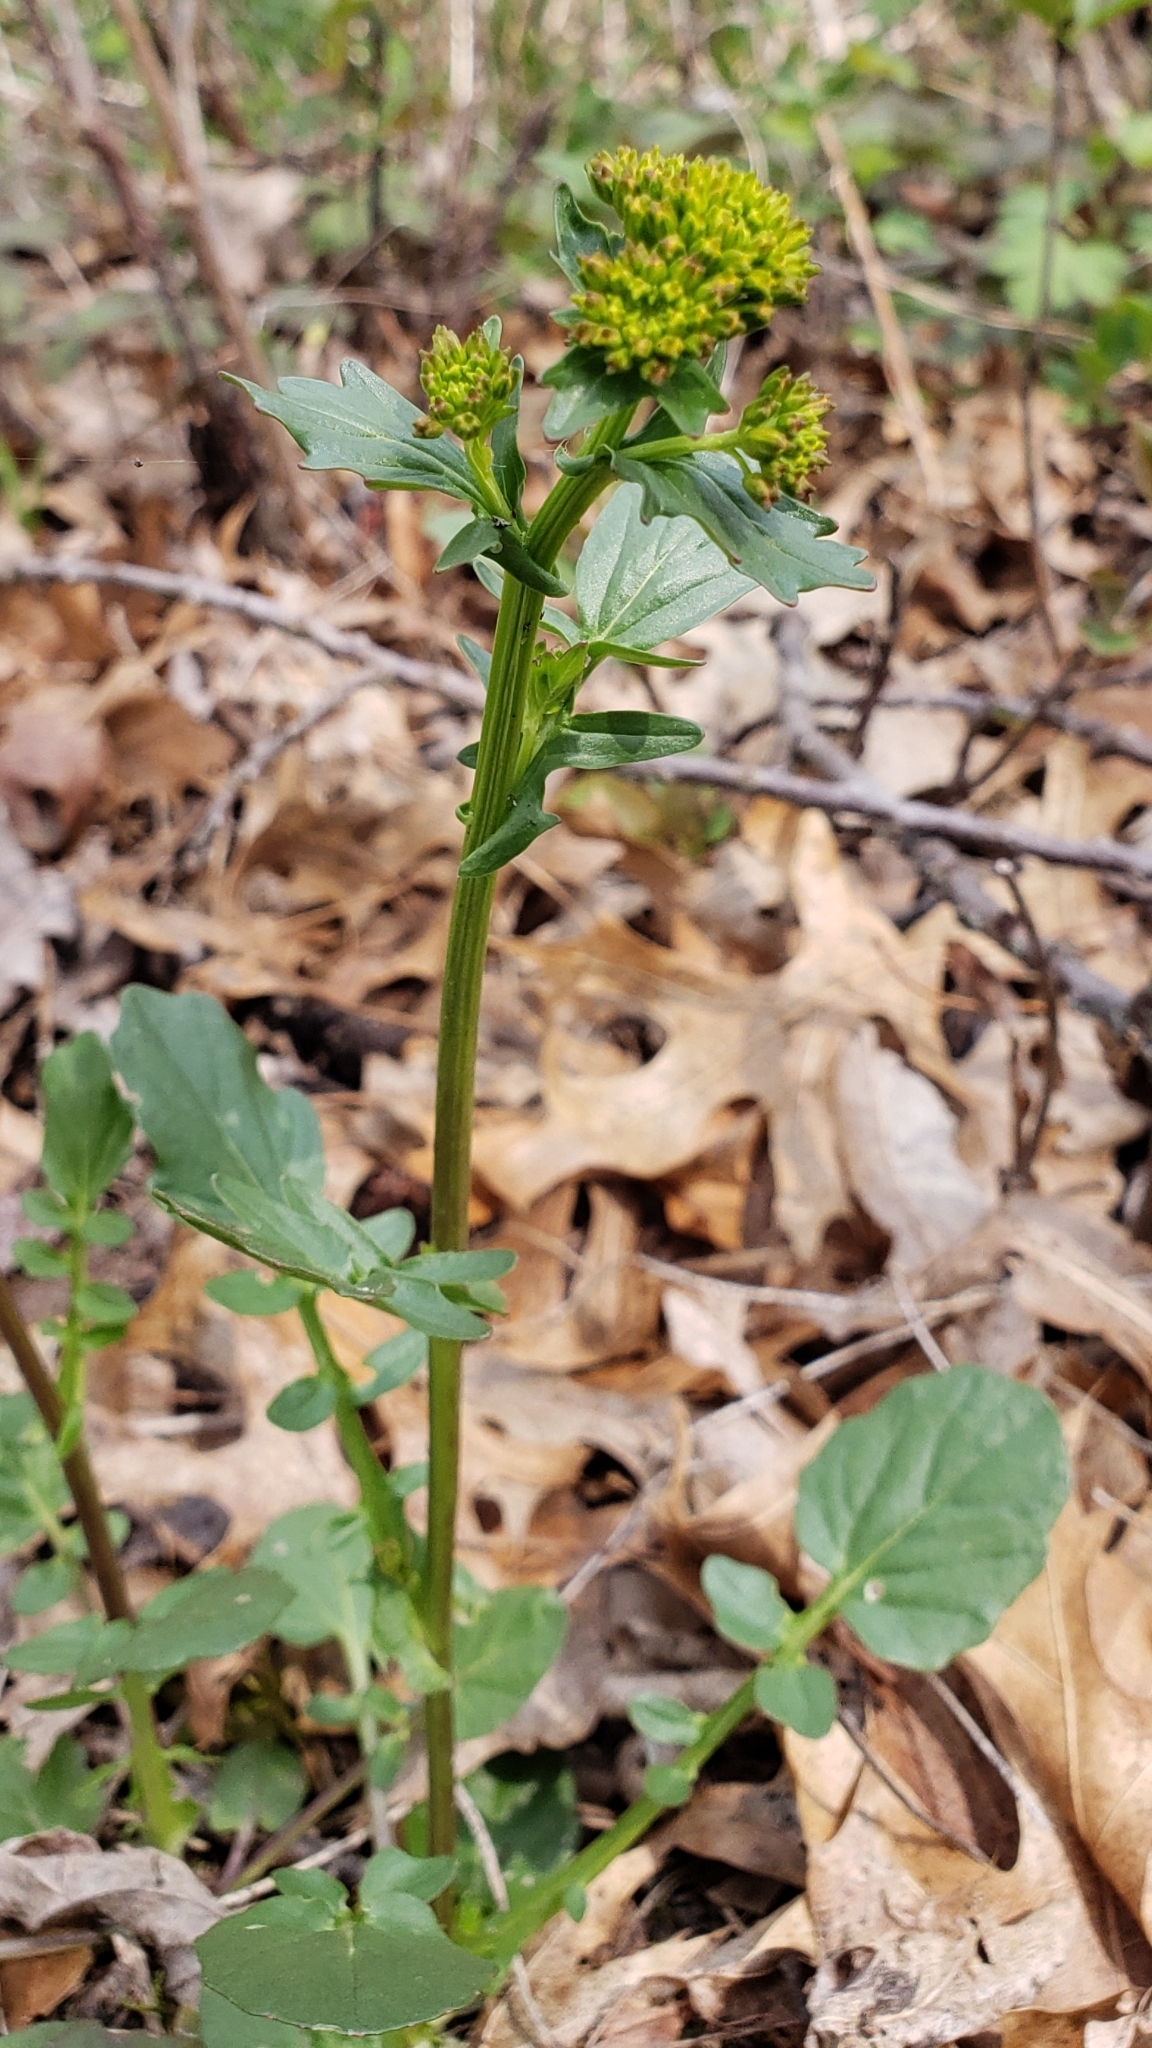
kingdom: Plantae
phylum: Tracheophyta
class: Magnoliopsida
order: Brassicales
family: Brassicaceae
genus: Barbarea
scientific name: Barbarea vulgaris
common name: Cressy-greens
